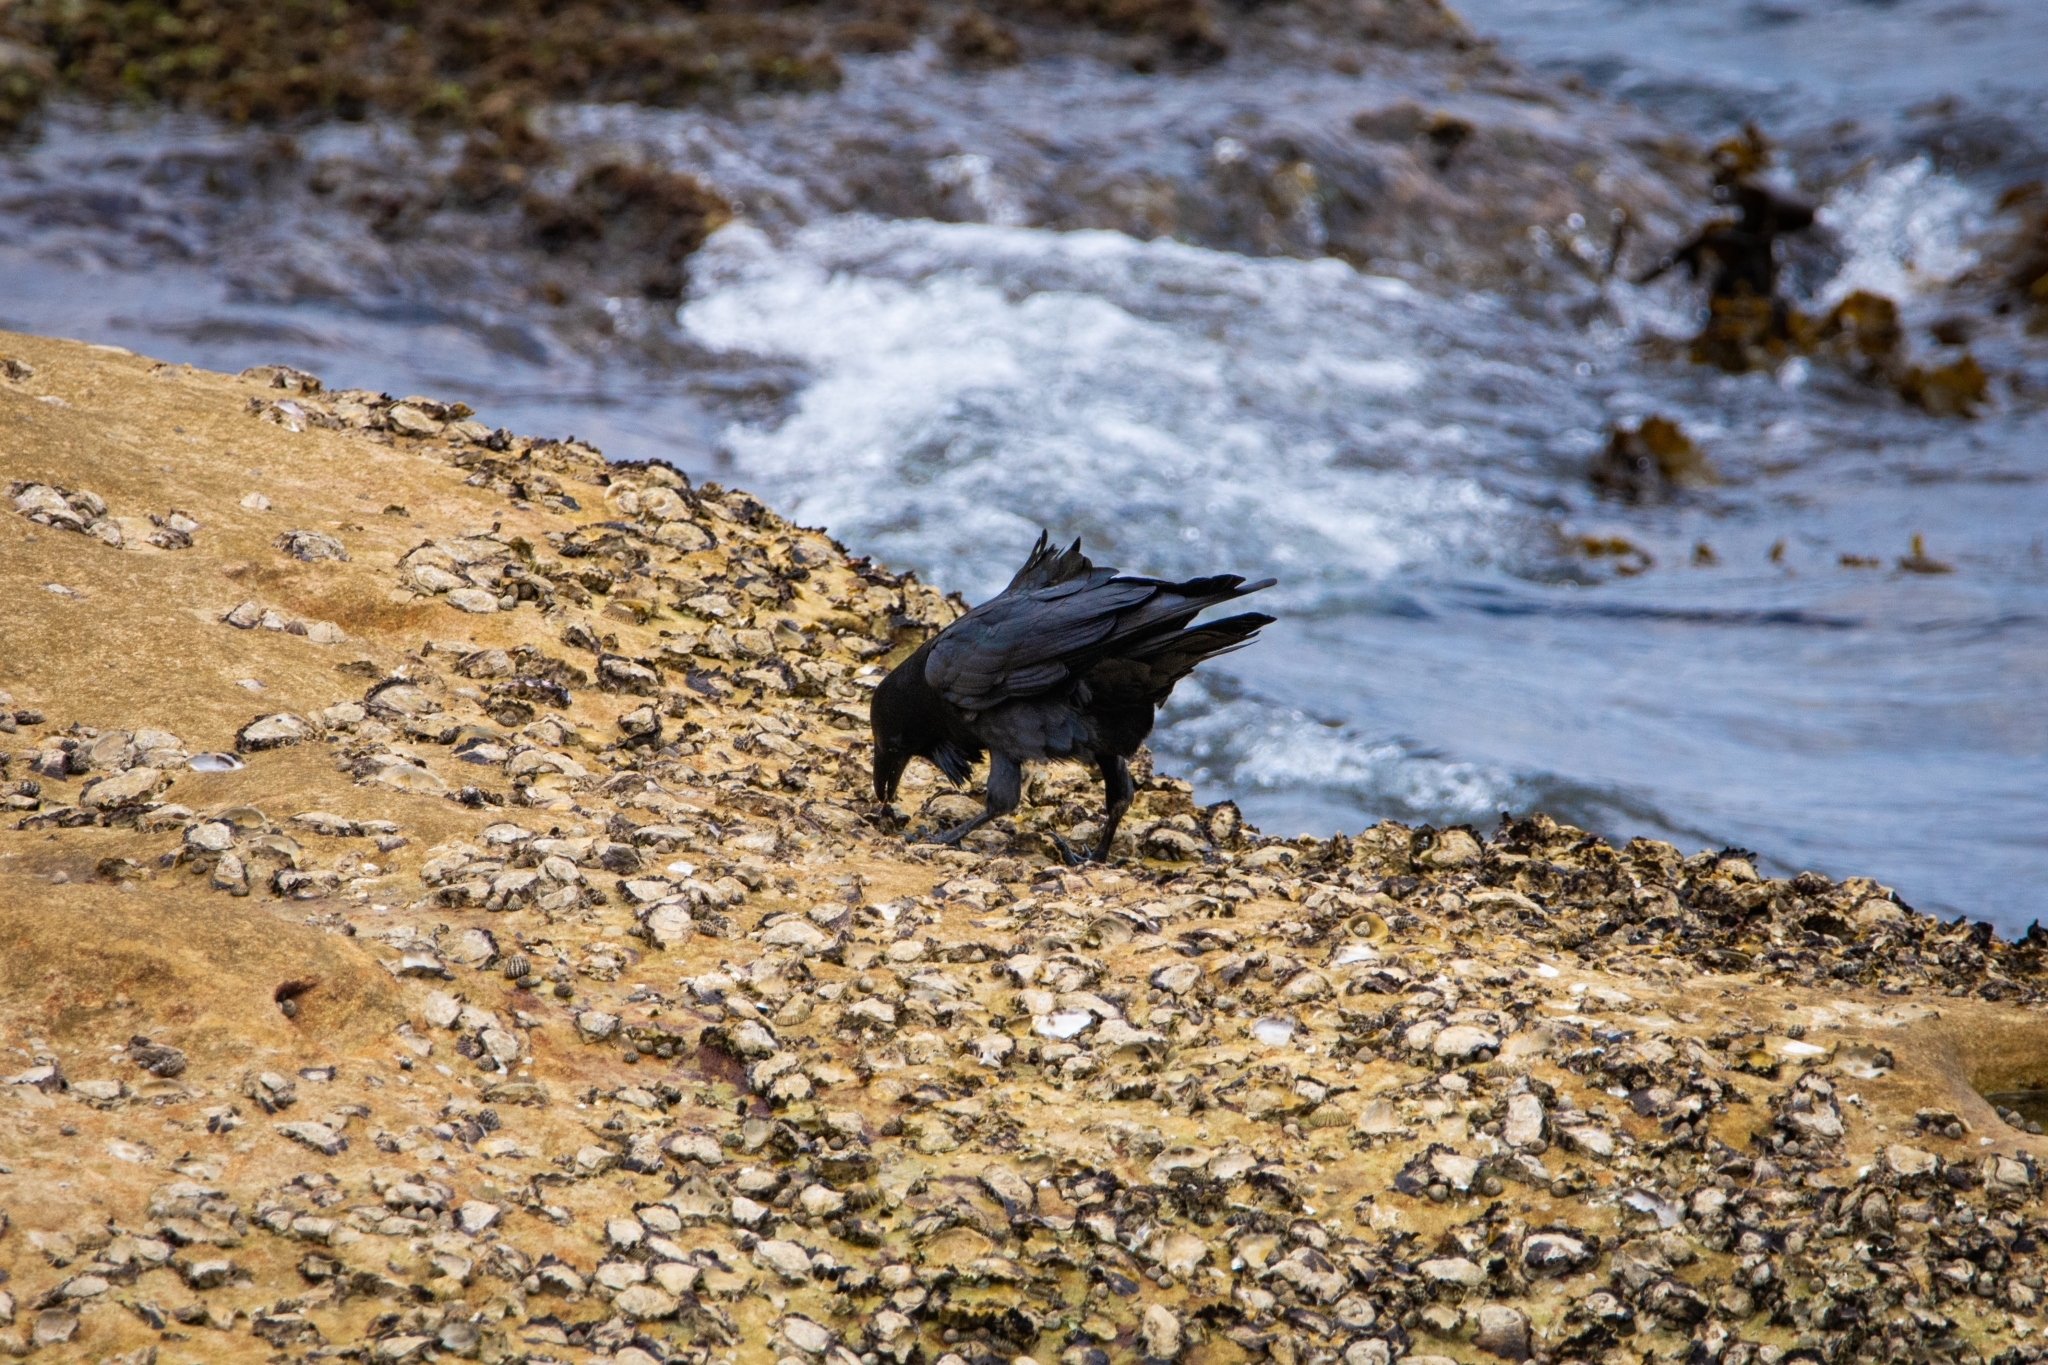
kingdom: Animalia
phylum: Chordata
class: Aves
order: Passeriformes
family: Corvidae
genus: Corvus
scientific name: Corvus coronoides
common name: Australian raven
